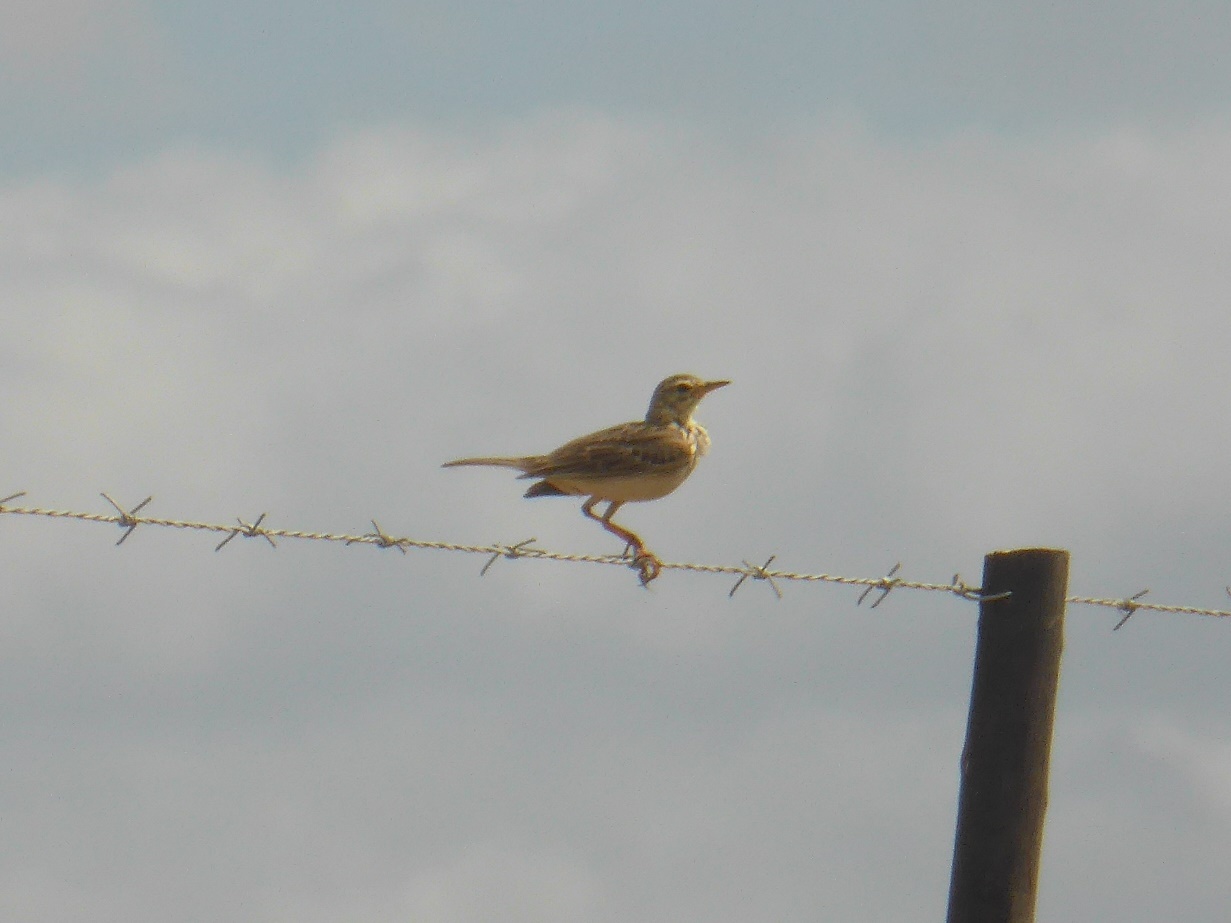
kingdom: Animalia
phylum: Chordata
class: Aves
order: Passeriformes
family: Motacillidae
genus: Anthus
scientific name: Anthus cinnamomeus
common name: African pipit
